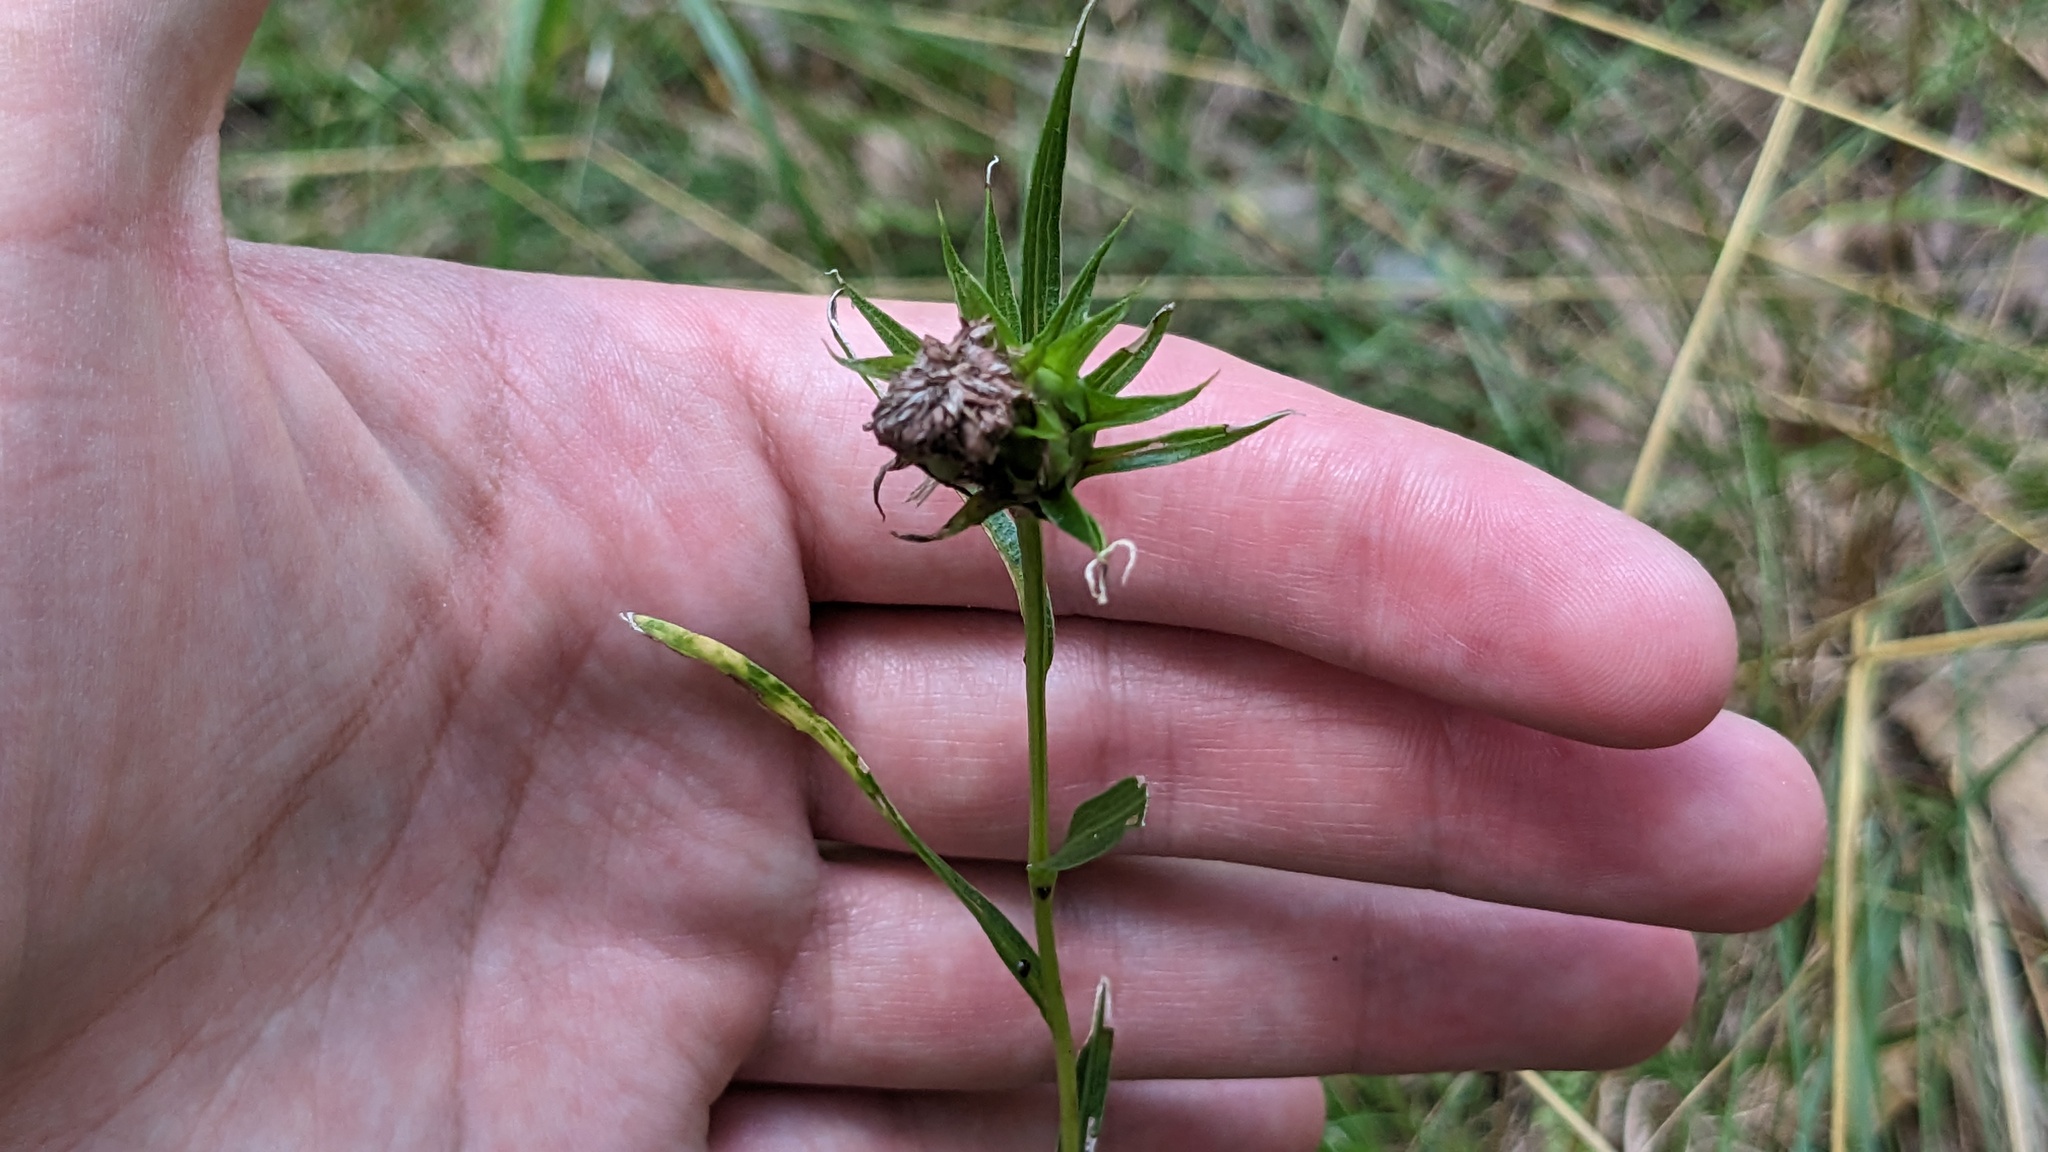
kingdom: Plantae
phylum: Tracheophyta
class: Magnoliopsida
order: Asterales
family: Asteraceae
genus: Liatris
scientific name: Liatris compacta
